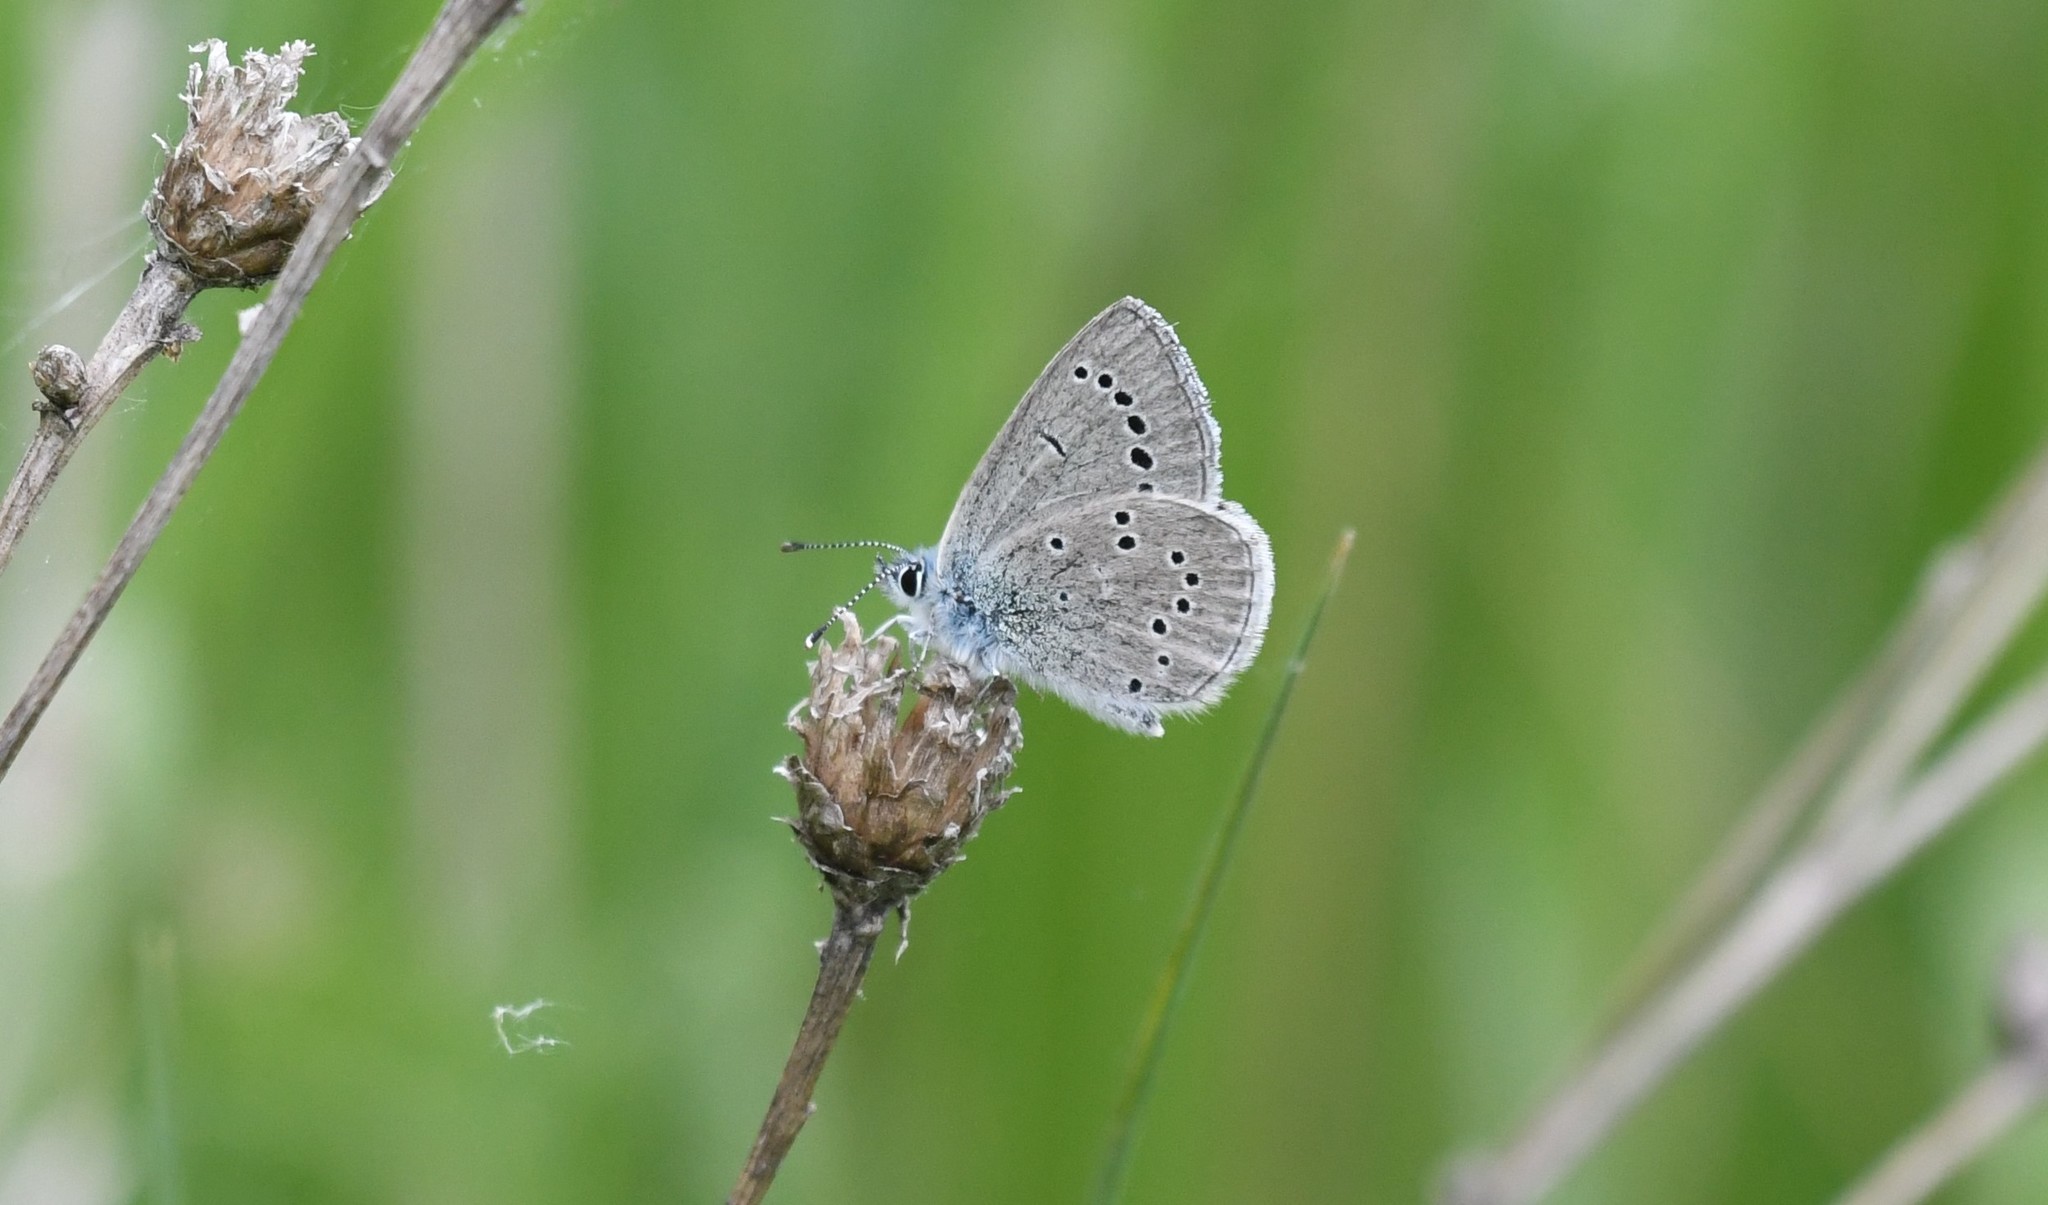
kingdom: Animalia
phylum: Arthropoda
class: Insecta
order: Lepidoptera
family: Lycaenidae
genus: Glaucopsyche
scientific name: Glaucopsyche lygdamus
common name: Silvery blue
